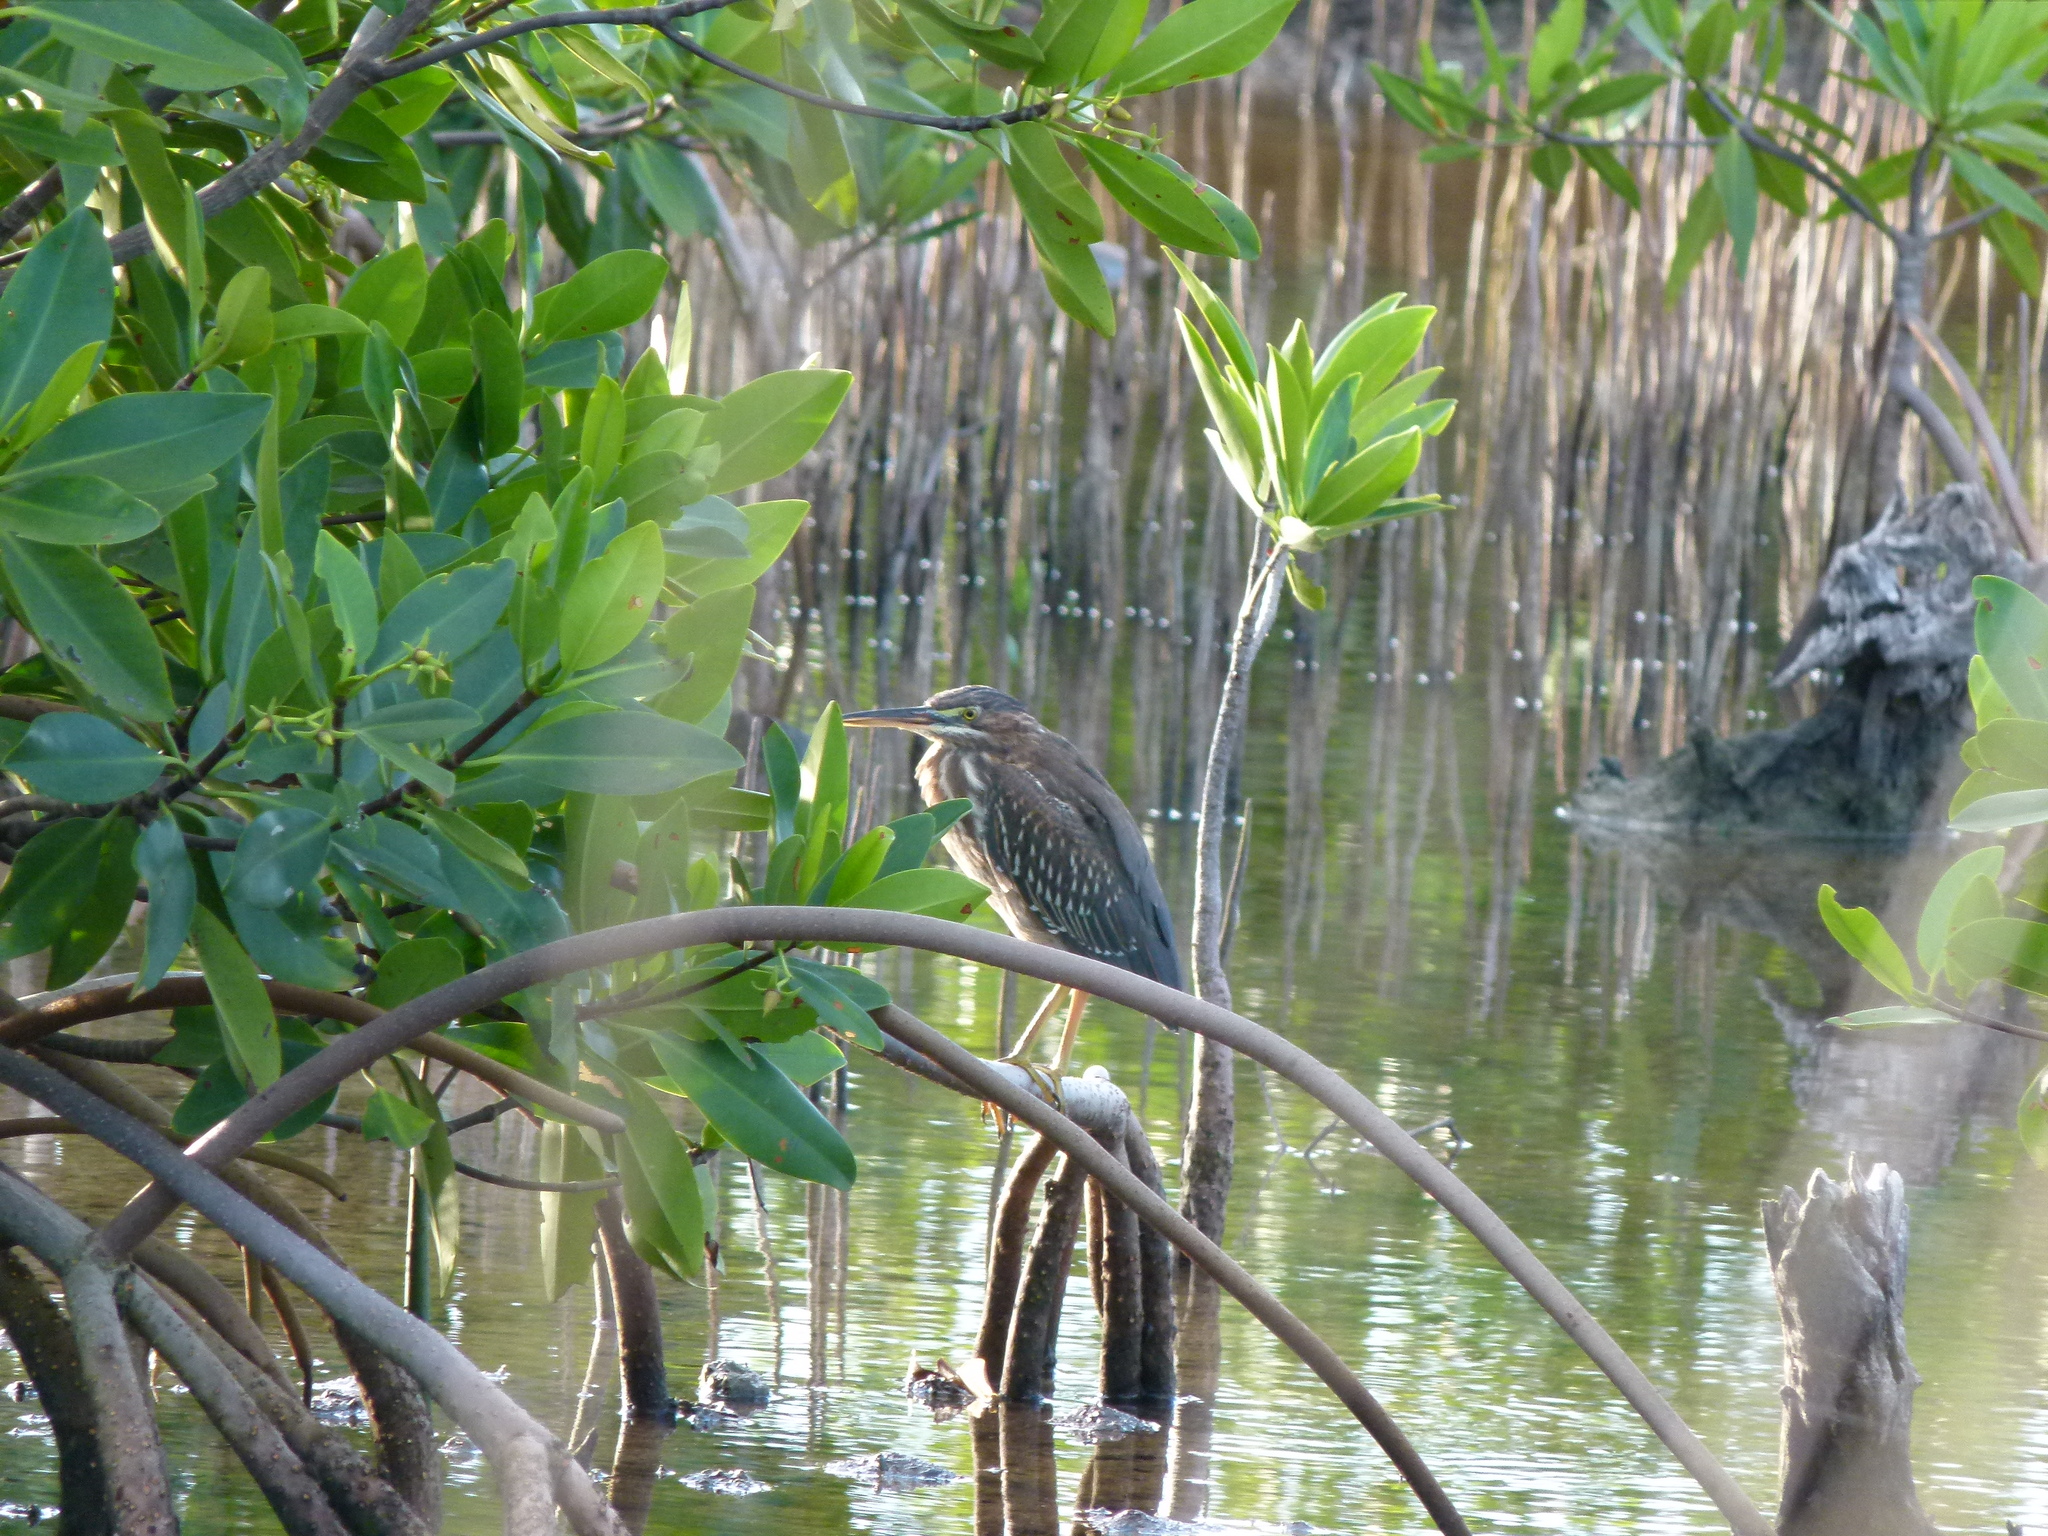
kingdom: Plantae
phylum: Tracheophyta
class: Magnoliopsida
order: Malpighiales
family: Rhizophoraceae
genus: Rhizophora
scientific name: Rhizophora mangle
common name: Red mangrove
